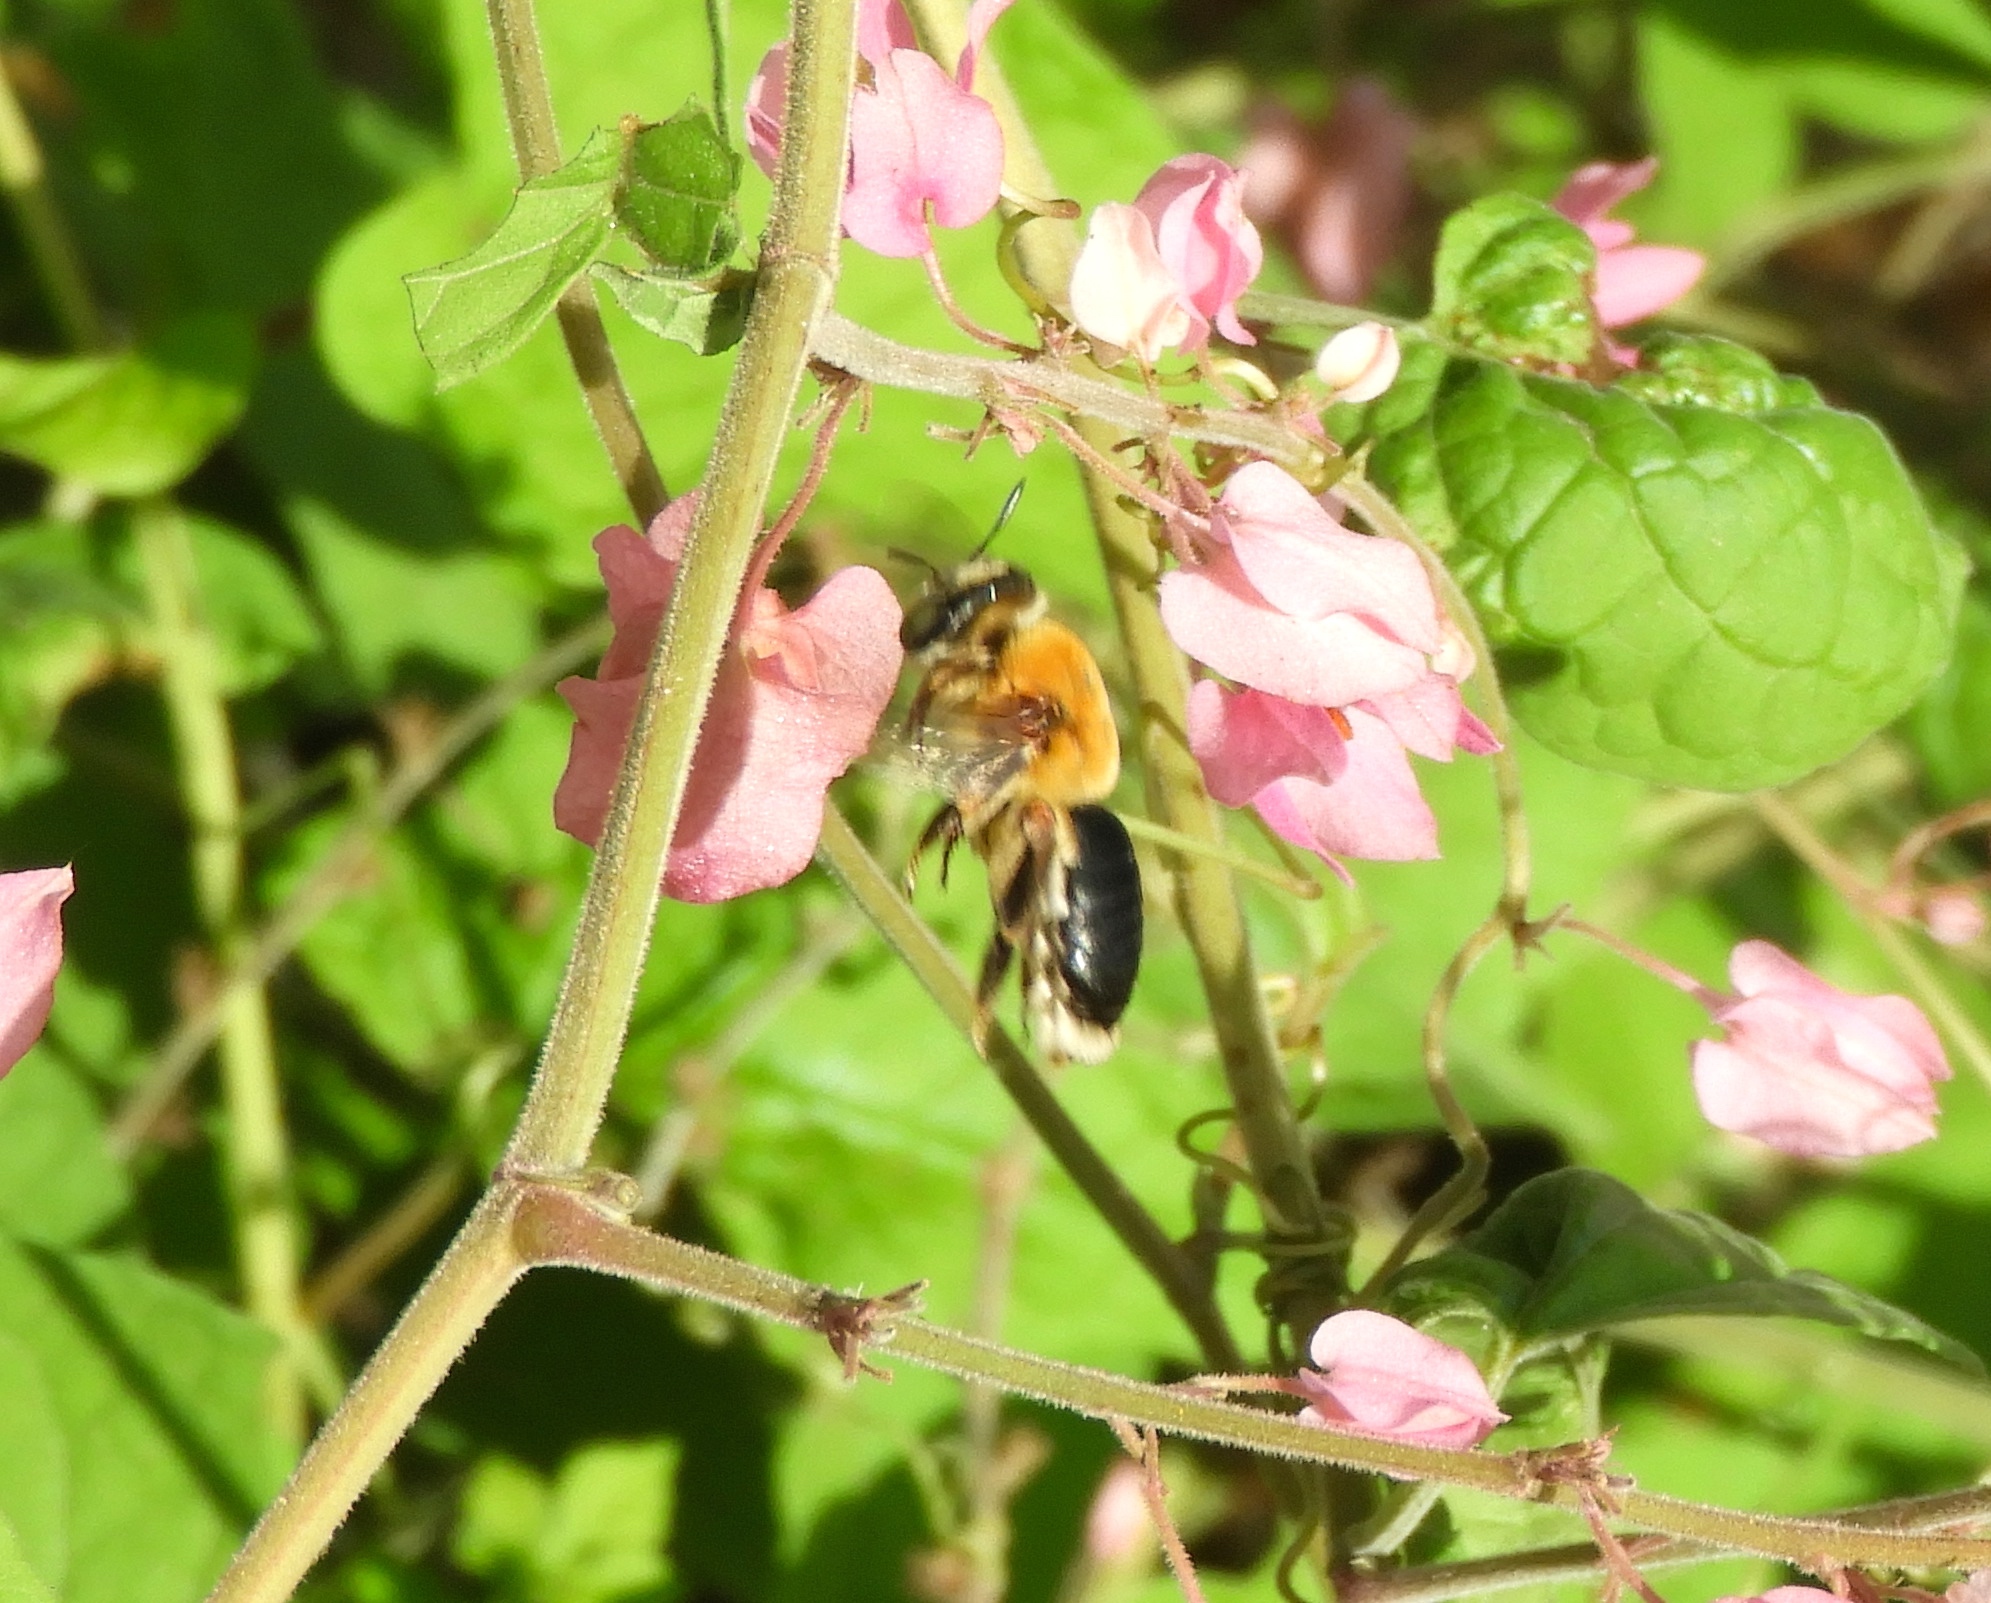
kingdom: Animalia
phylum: Arthropoda
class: Insecta
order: Hymenoptera
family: Andrenidae
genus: Mesoxaea
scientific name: Mesoxaea
